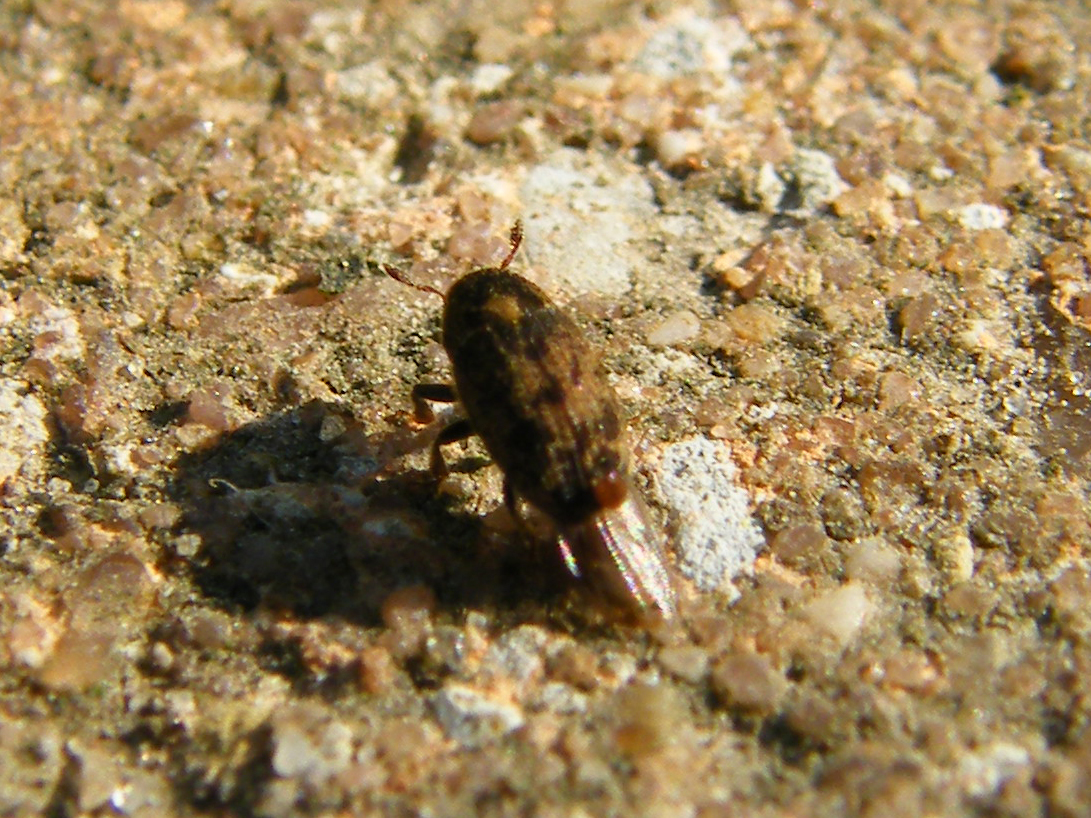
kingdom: Animalia
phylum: Arthropoda
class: Insecta
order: Coleoptera
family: Curculionidae
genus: Hylesinus
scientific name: Hylesinus varius
